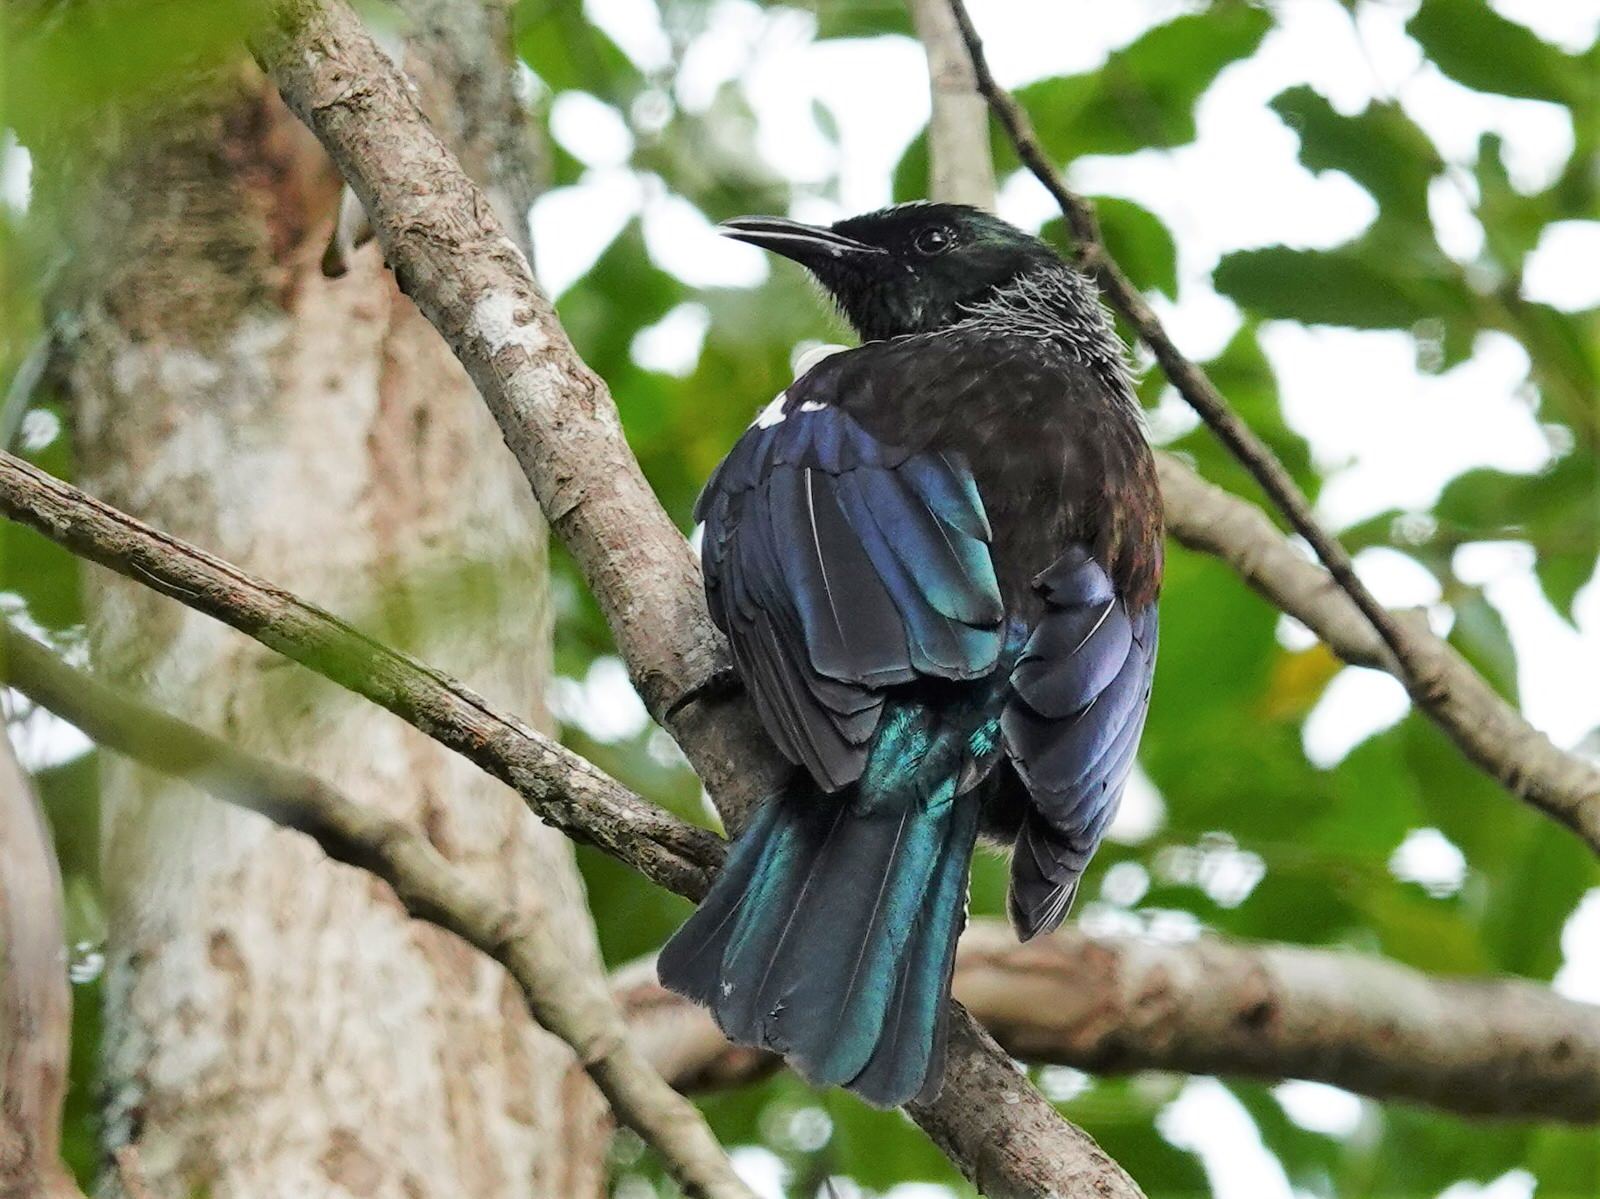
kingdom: Animalia
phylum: Chordata
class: Aves
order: Passeriformes
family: Meliphagidae
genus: Prosthemadera
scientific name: Prosthemadera novaeseelandiae
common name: Tui
